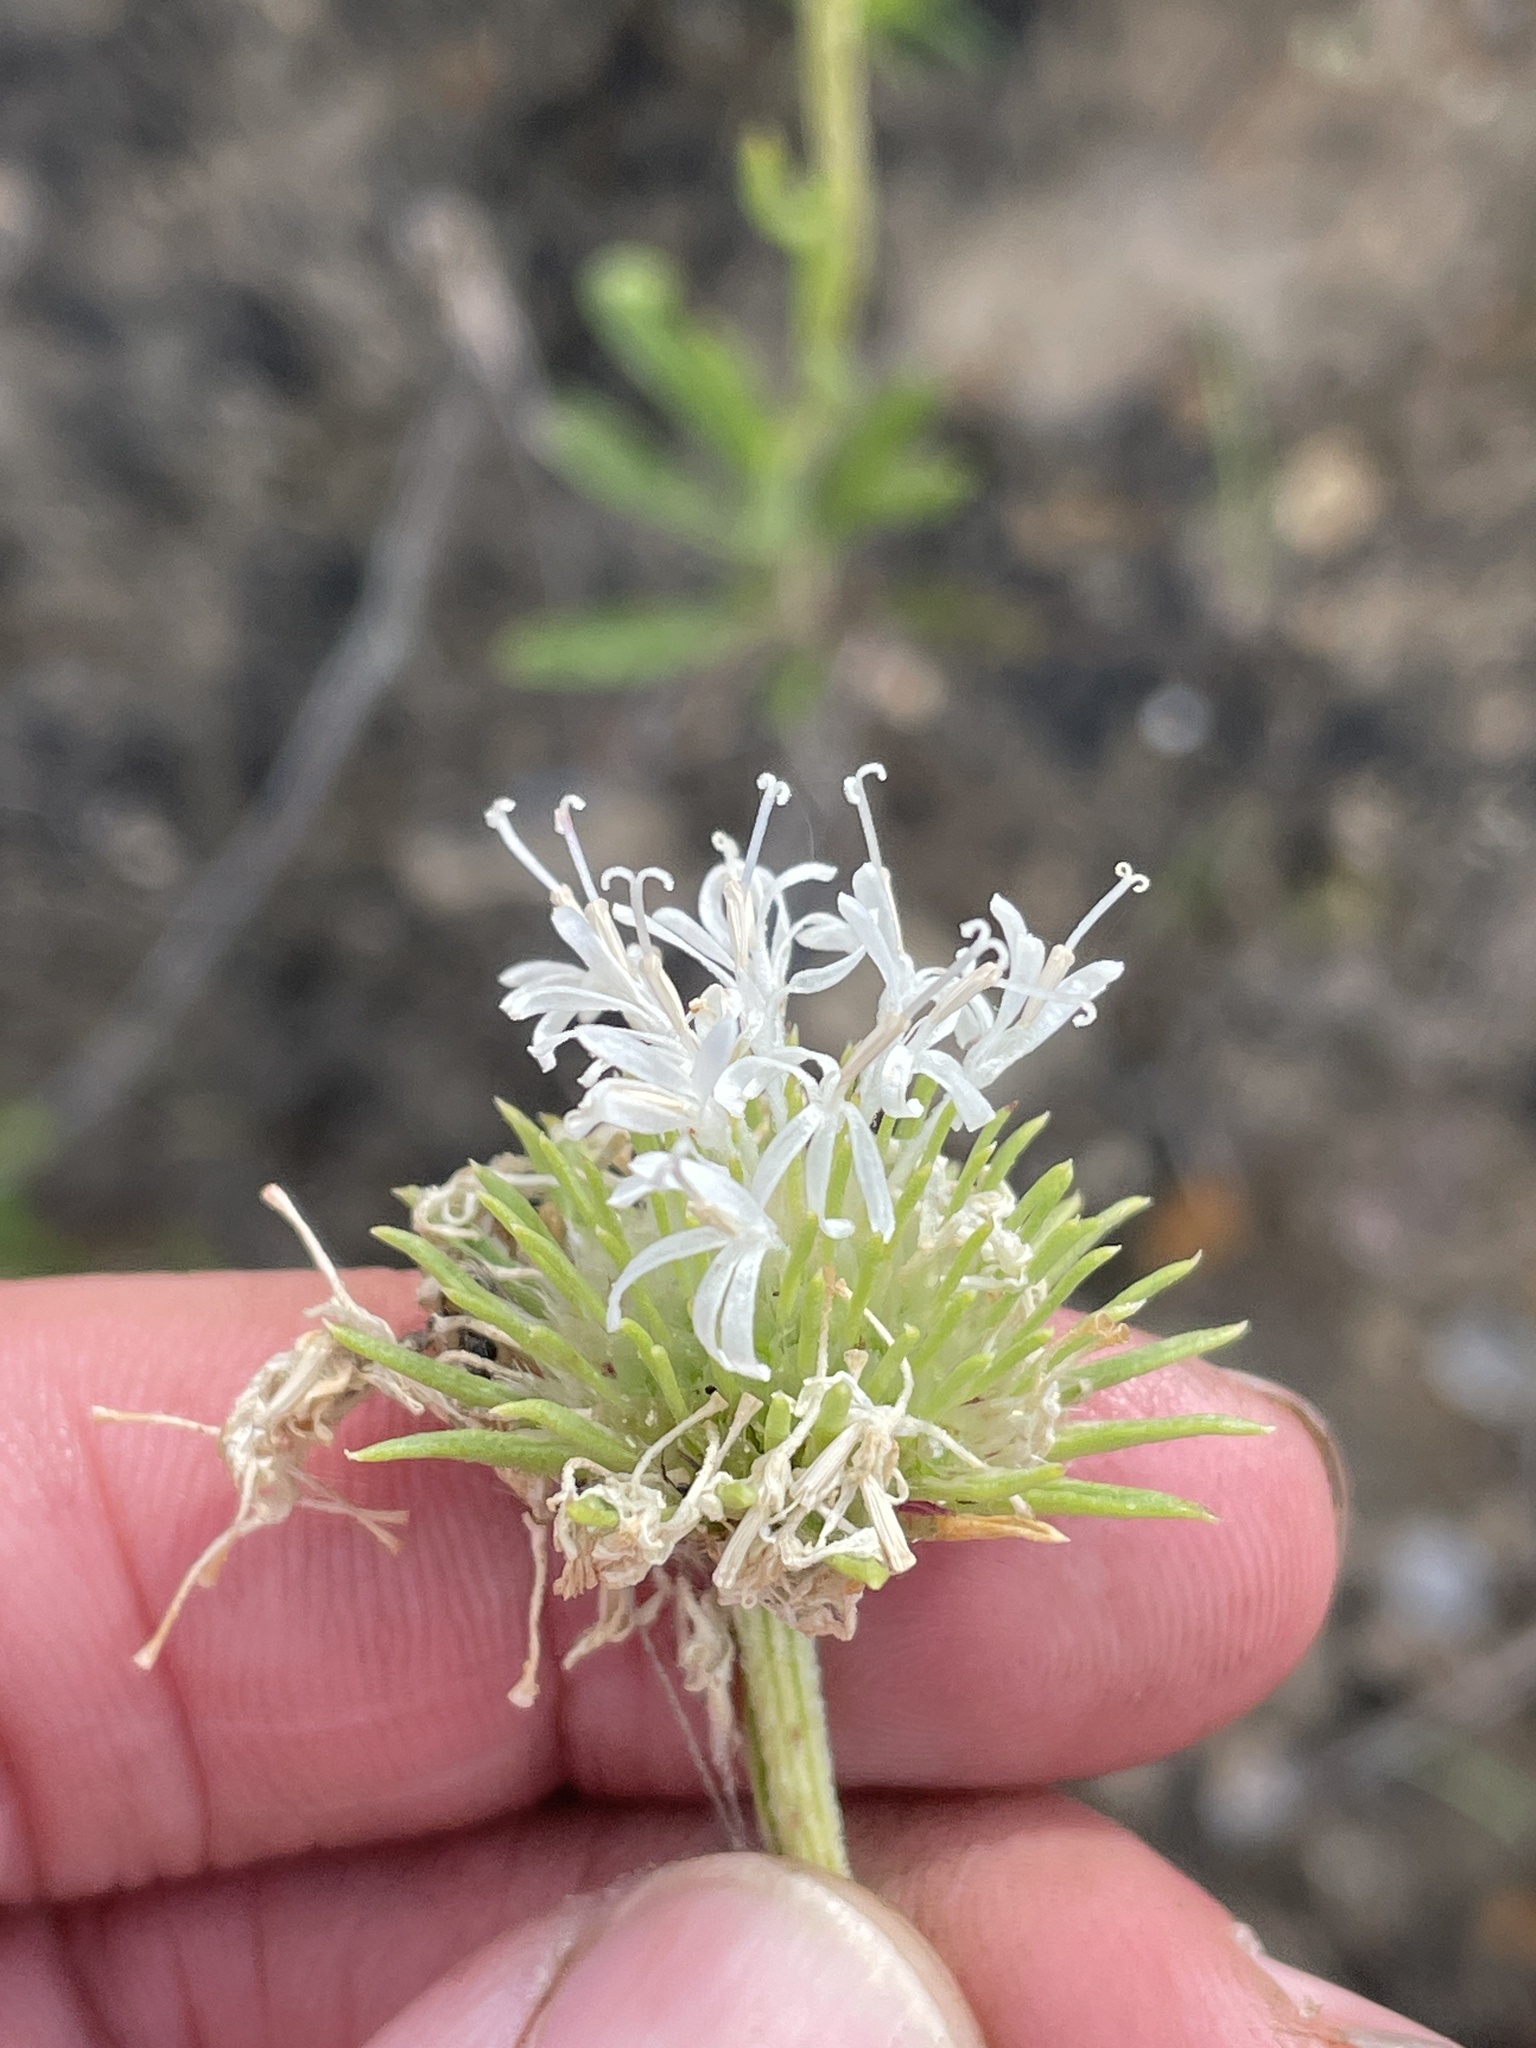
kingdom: Plantae
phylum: Tracheophyta
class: Magnoliopsida
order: Asterales
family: Asteraceae
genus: Marshallia
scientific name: Marshallia caespitosa
